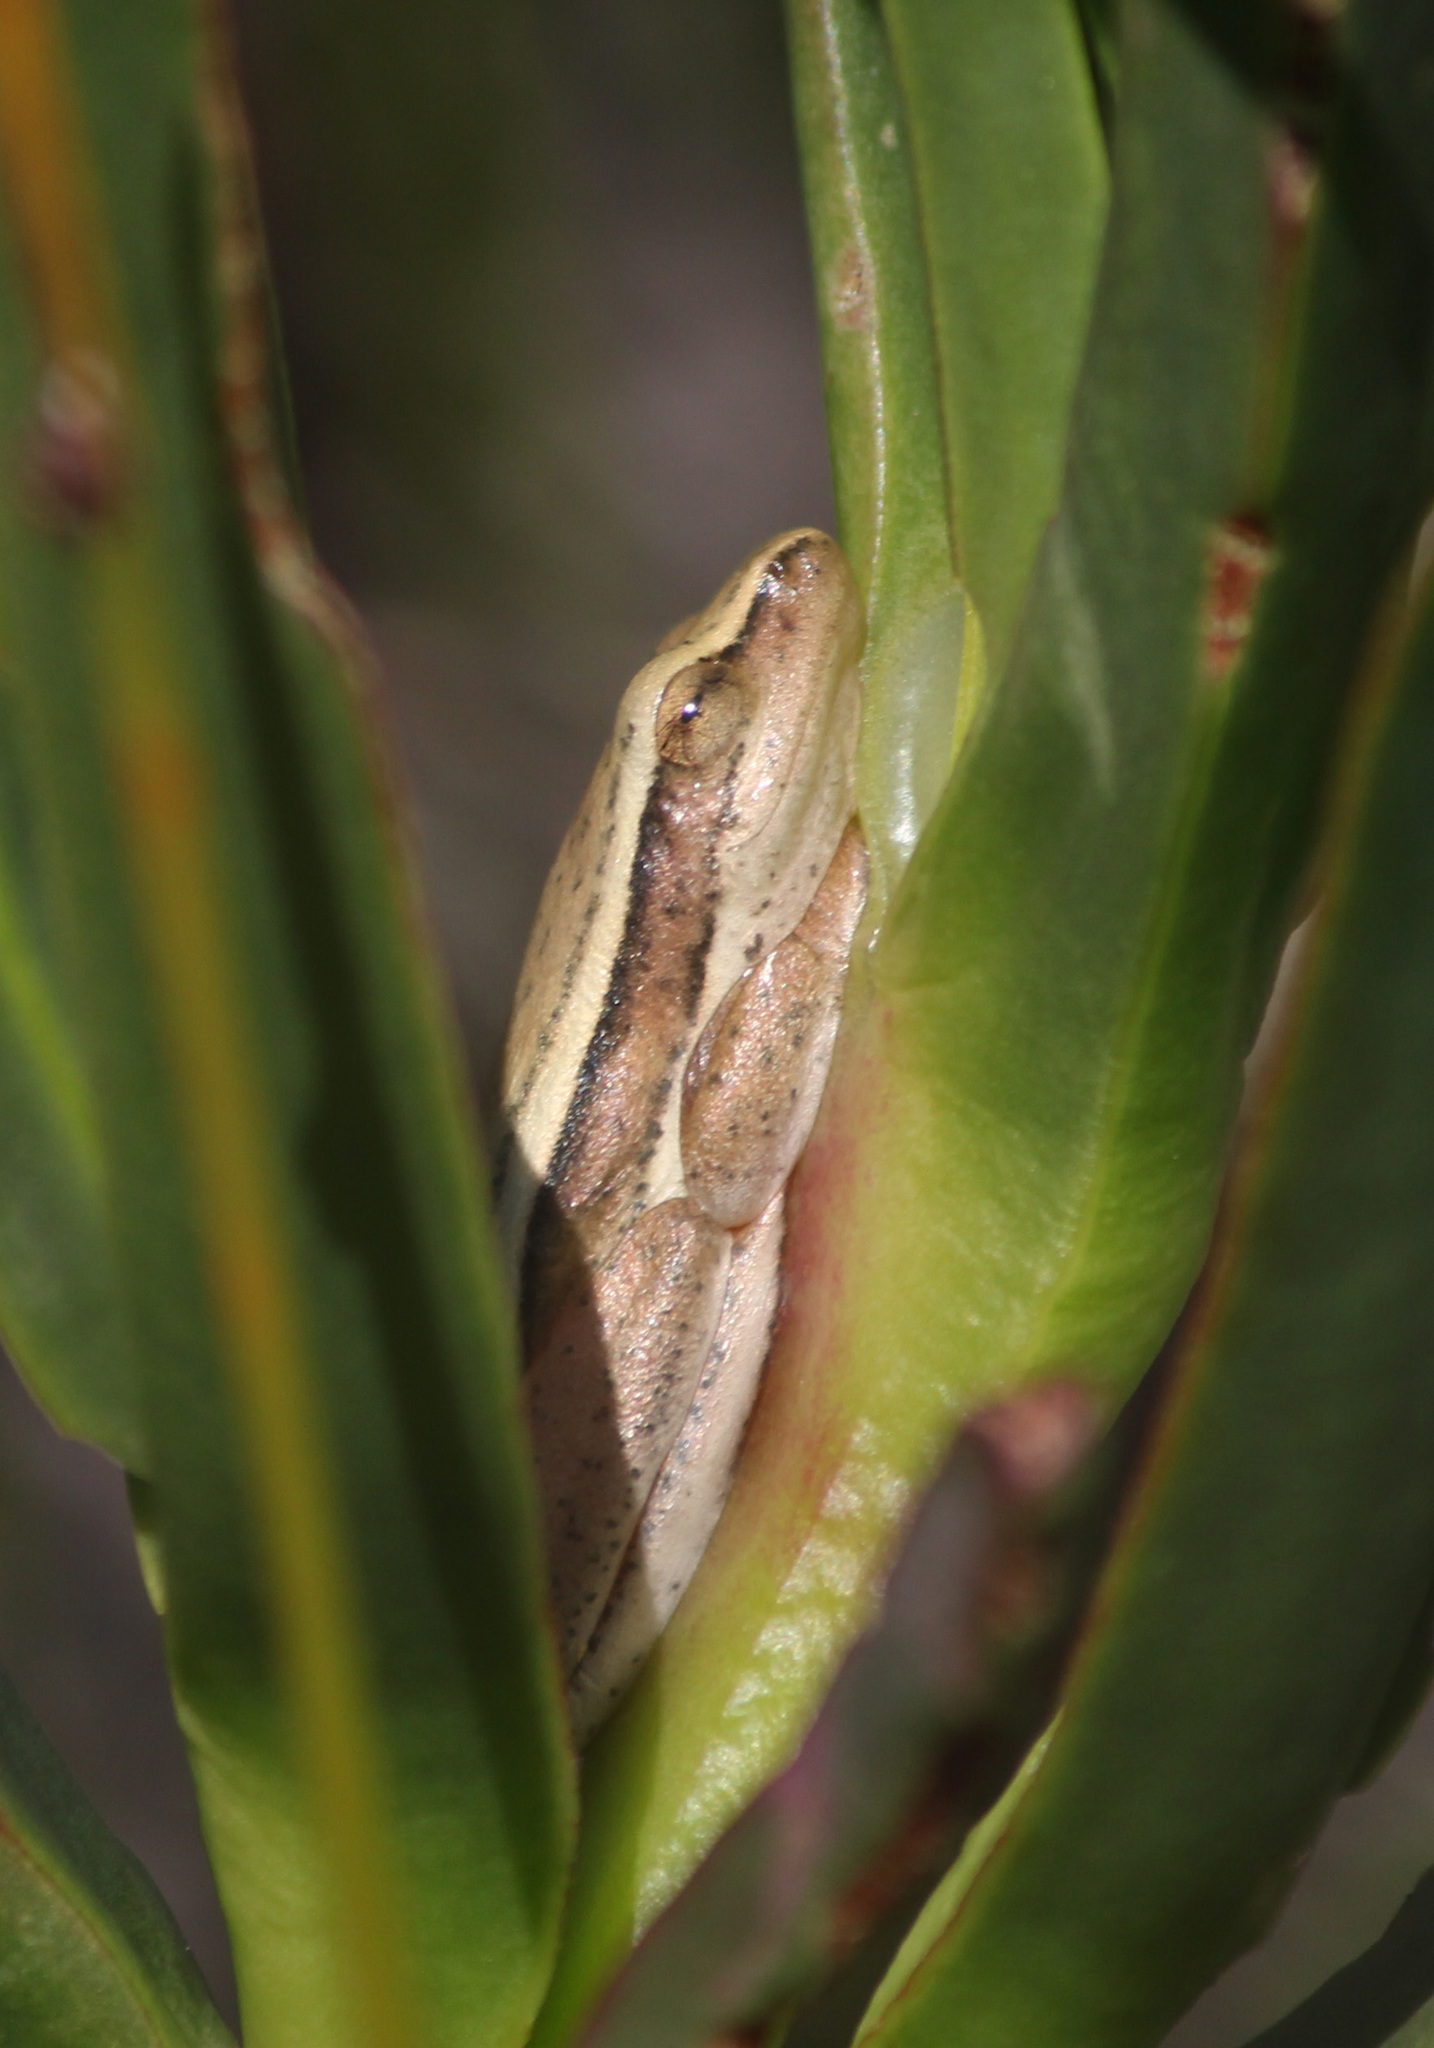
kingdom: Animalia
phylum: Chordata
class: Amphibia
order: Anura
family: Hyperoliidae
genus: Hyperolius
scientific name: Hyperolius horstockii
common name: Arum lily frog
